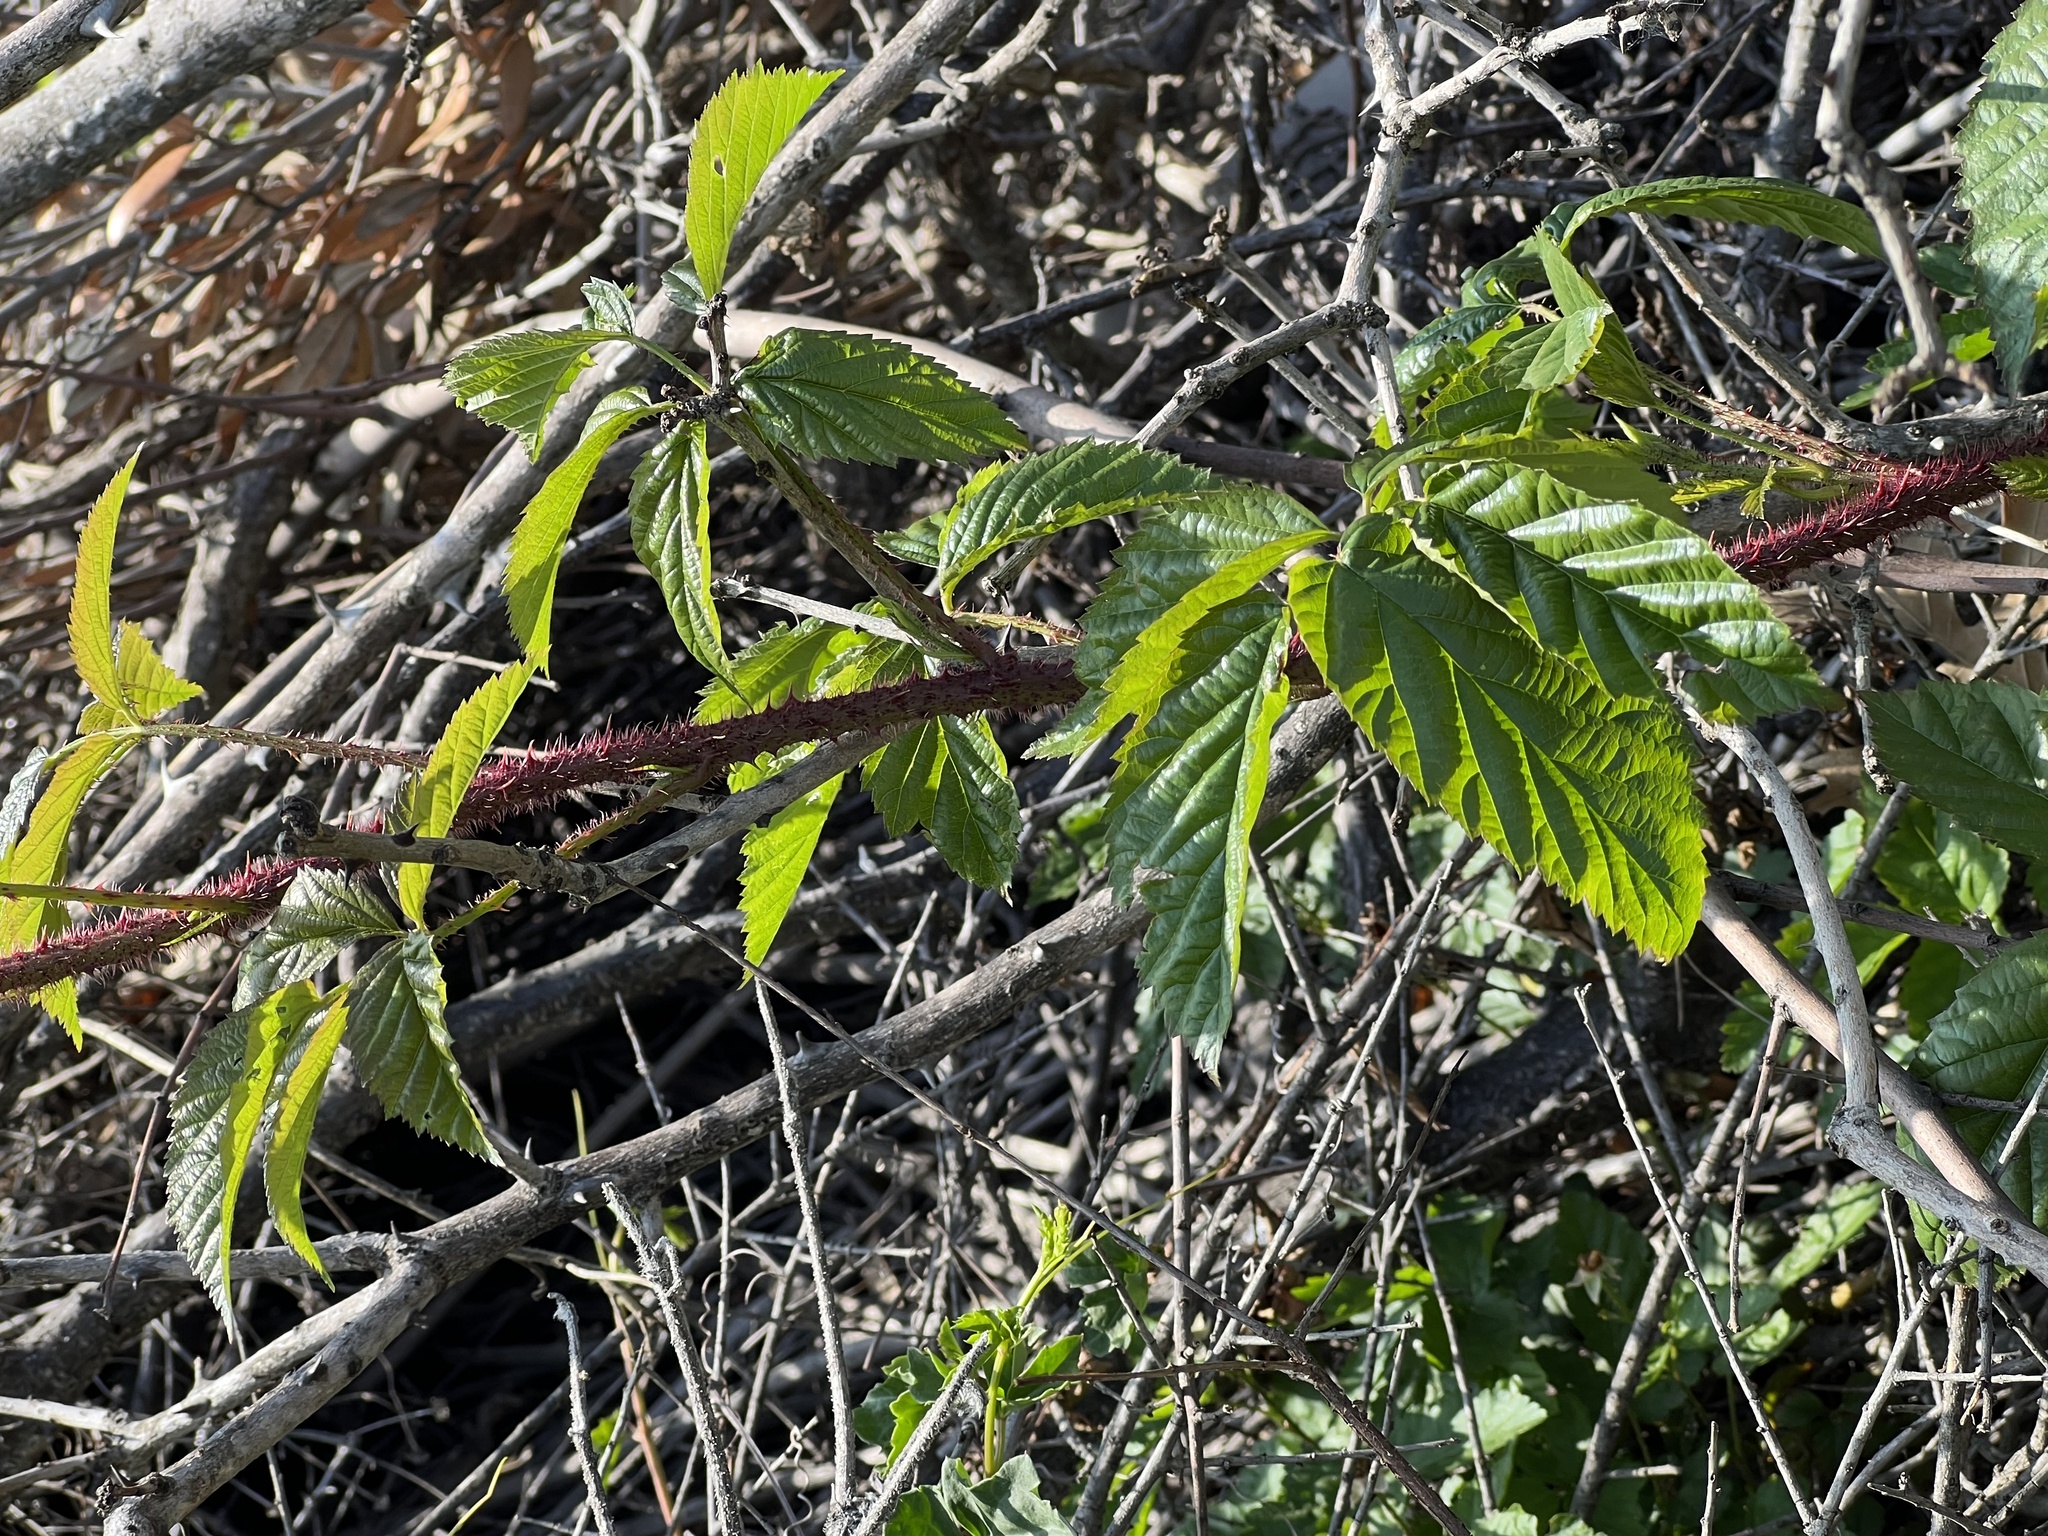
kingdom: Plantae
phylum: Tracheophyta
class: Magnoliopsida
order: Rosales
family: Rosaceae
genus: Rubus
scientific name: Rubus trivialis
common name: Southern dewberry
